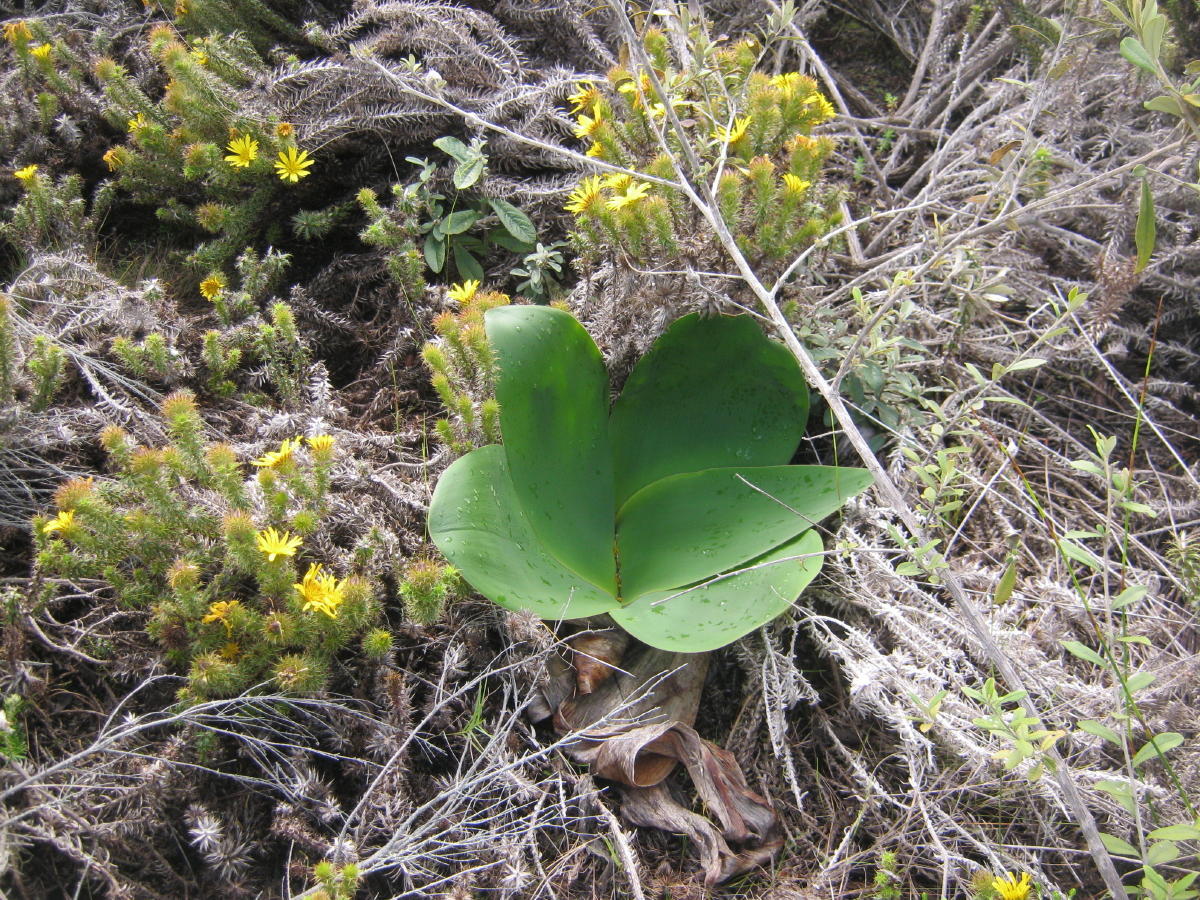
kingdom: Plantae
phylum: Tracheophyta
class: Liliopsida
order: Asparagales
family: Amaryllidaceae
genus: Brunsvigia
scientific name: Brunsvigia orientalis
